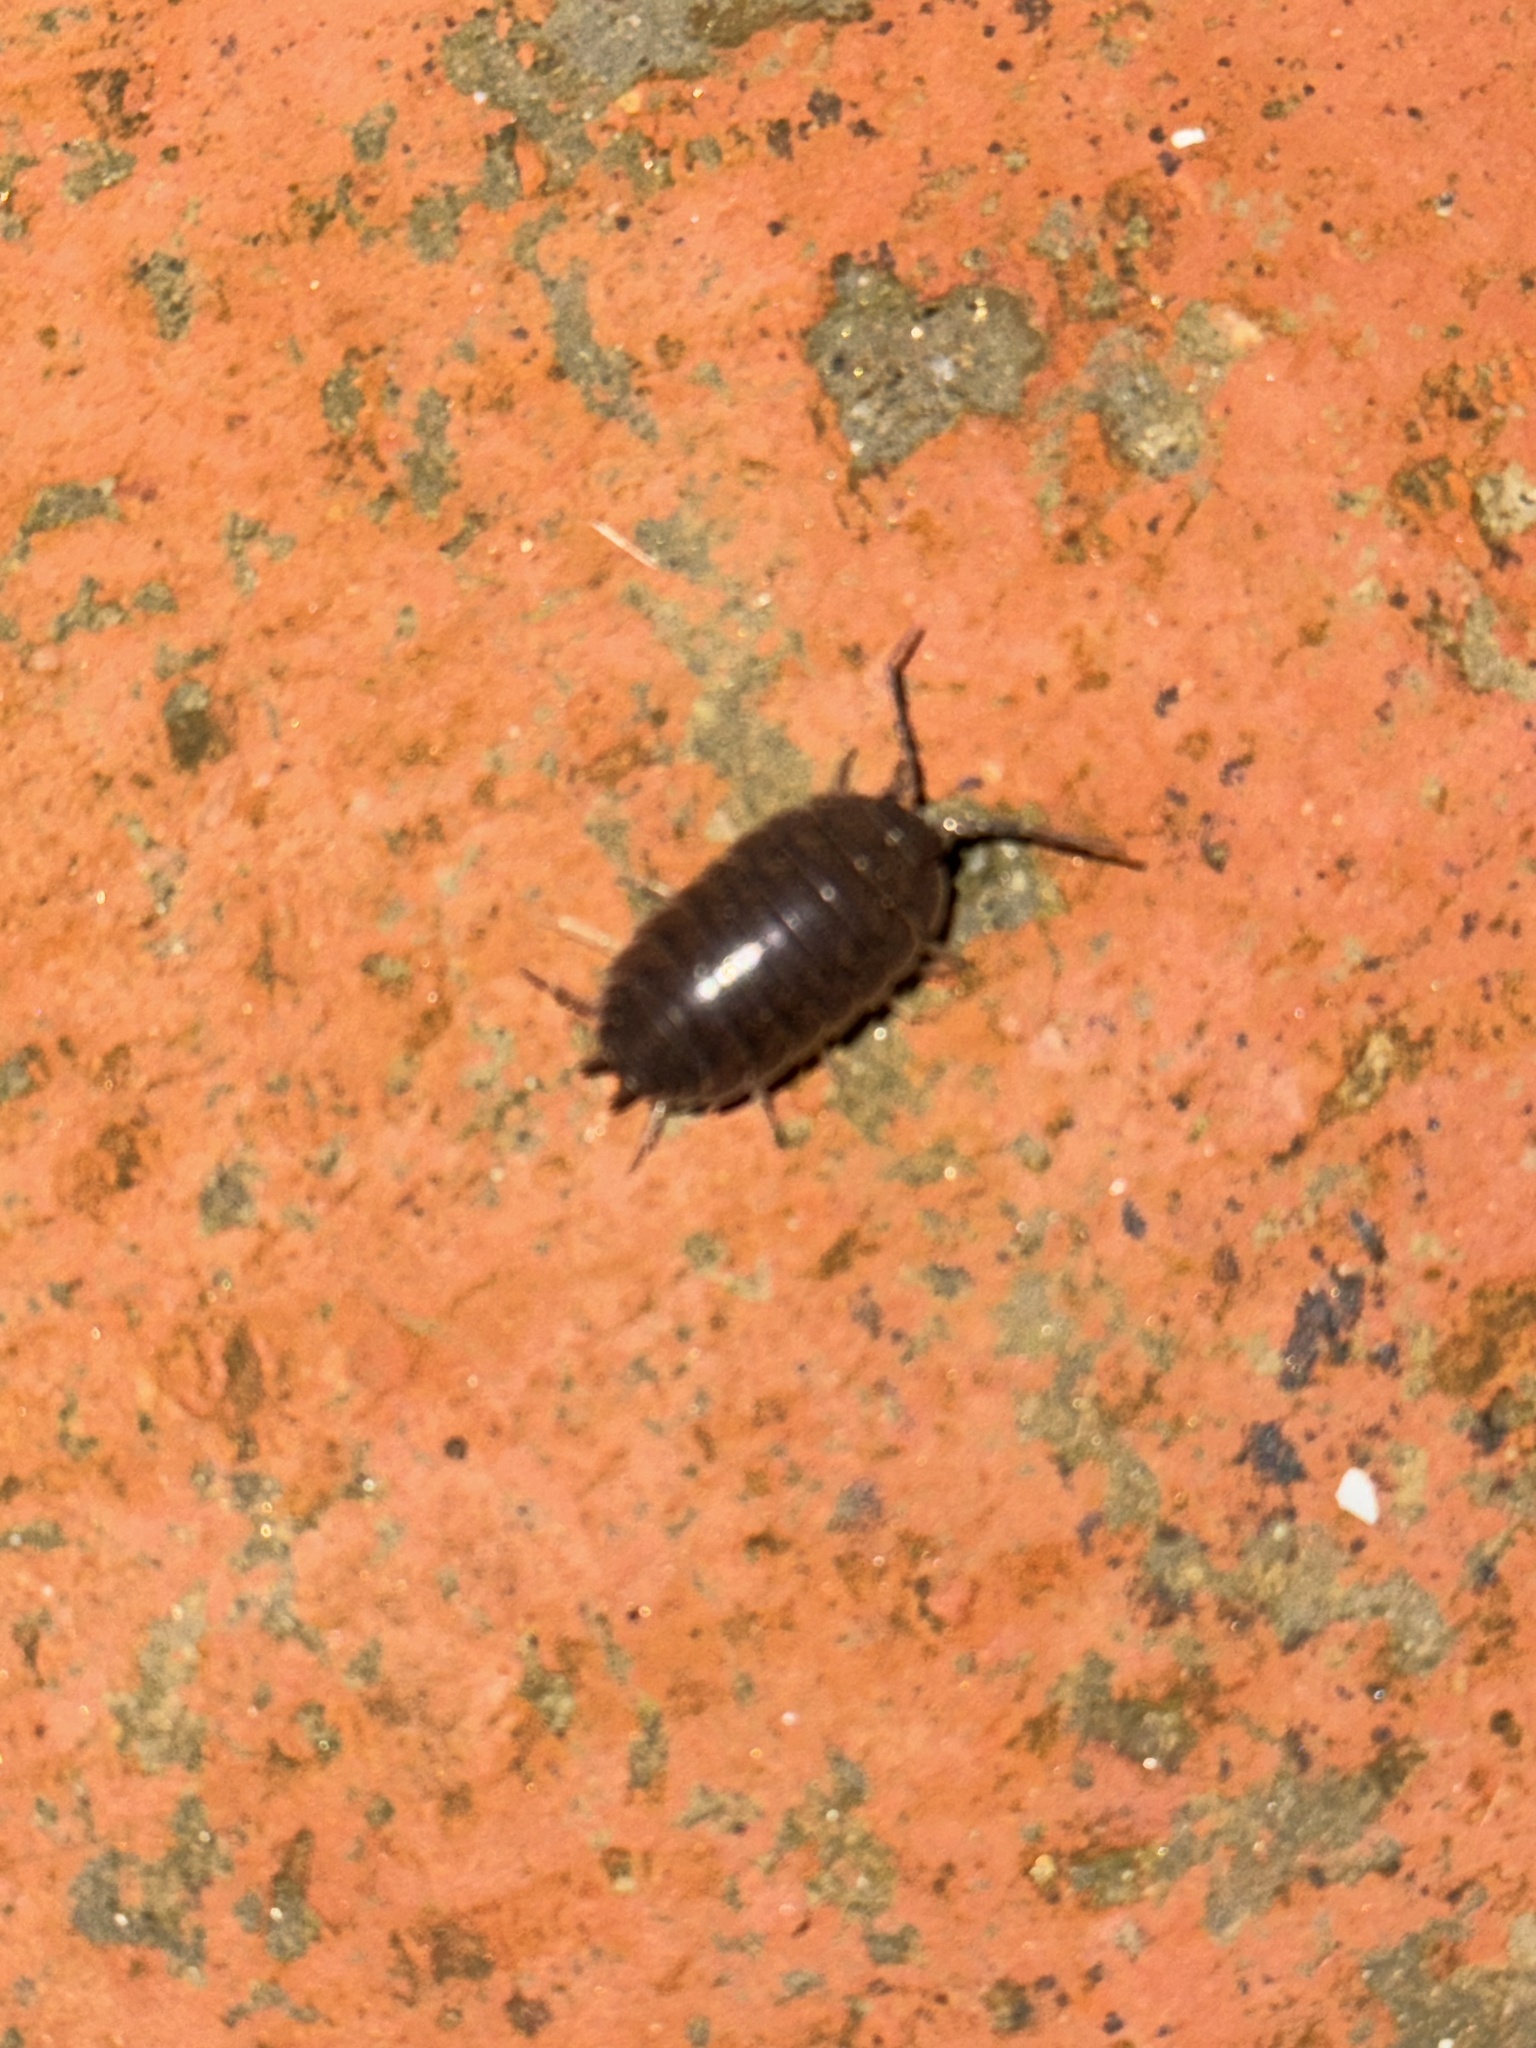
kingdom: Animalia
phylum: Arthropoda
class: Malacostraca
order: Isopoda
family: Porcellionidae
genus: Porcellio
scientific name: Porcellio laevis
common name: Swift woodlouse
